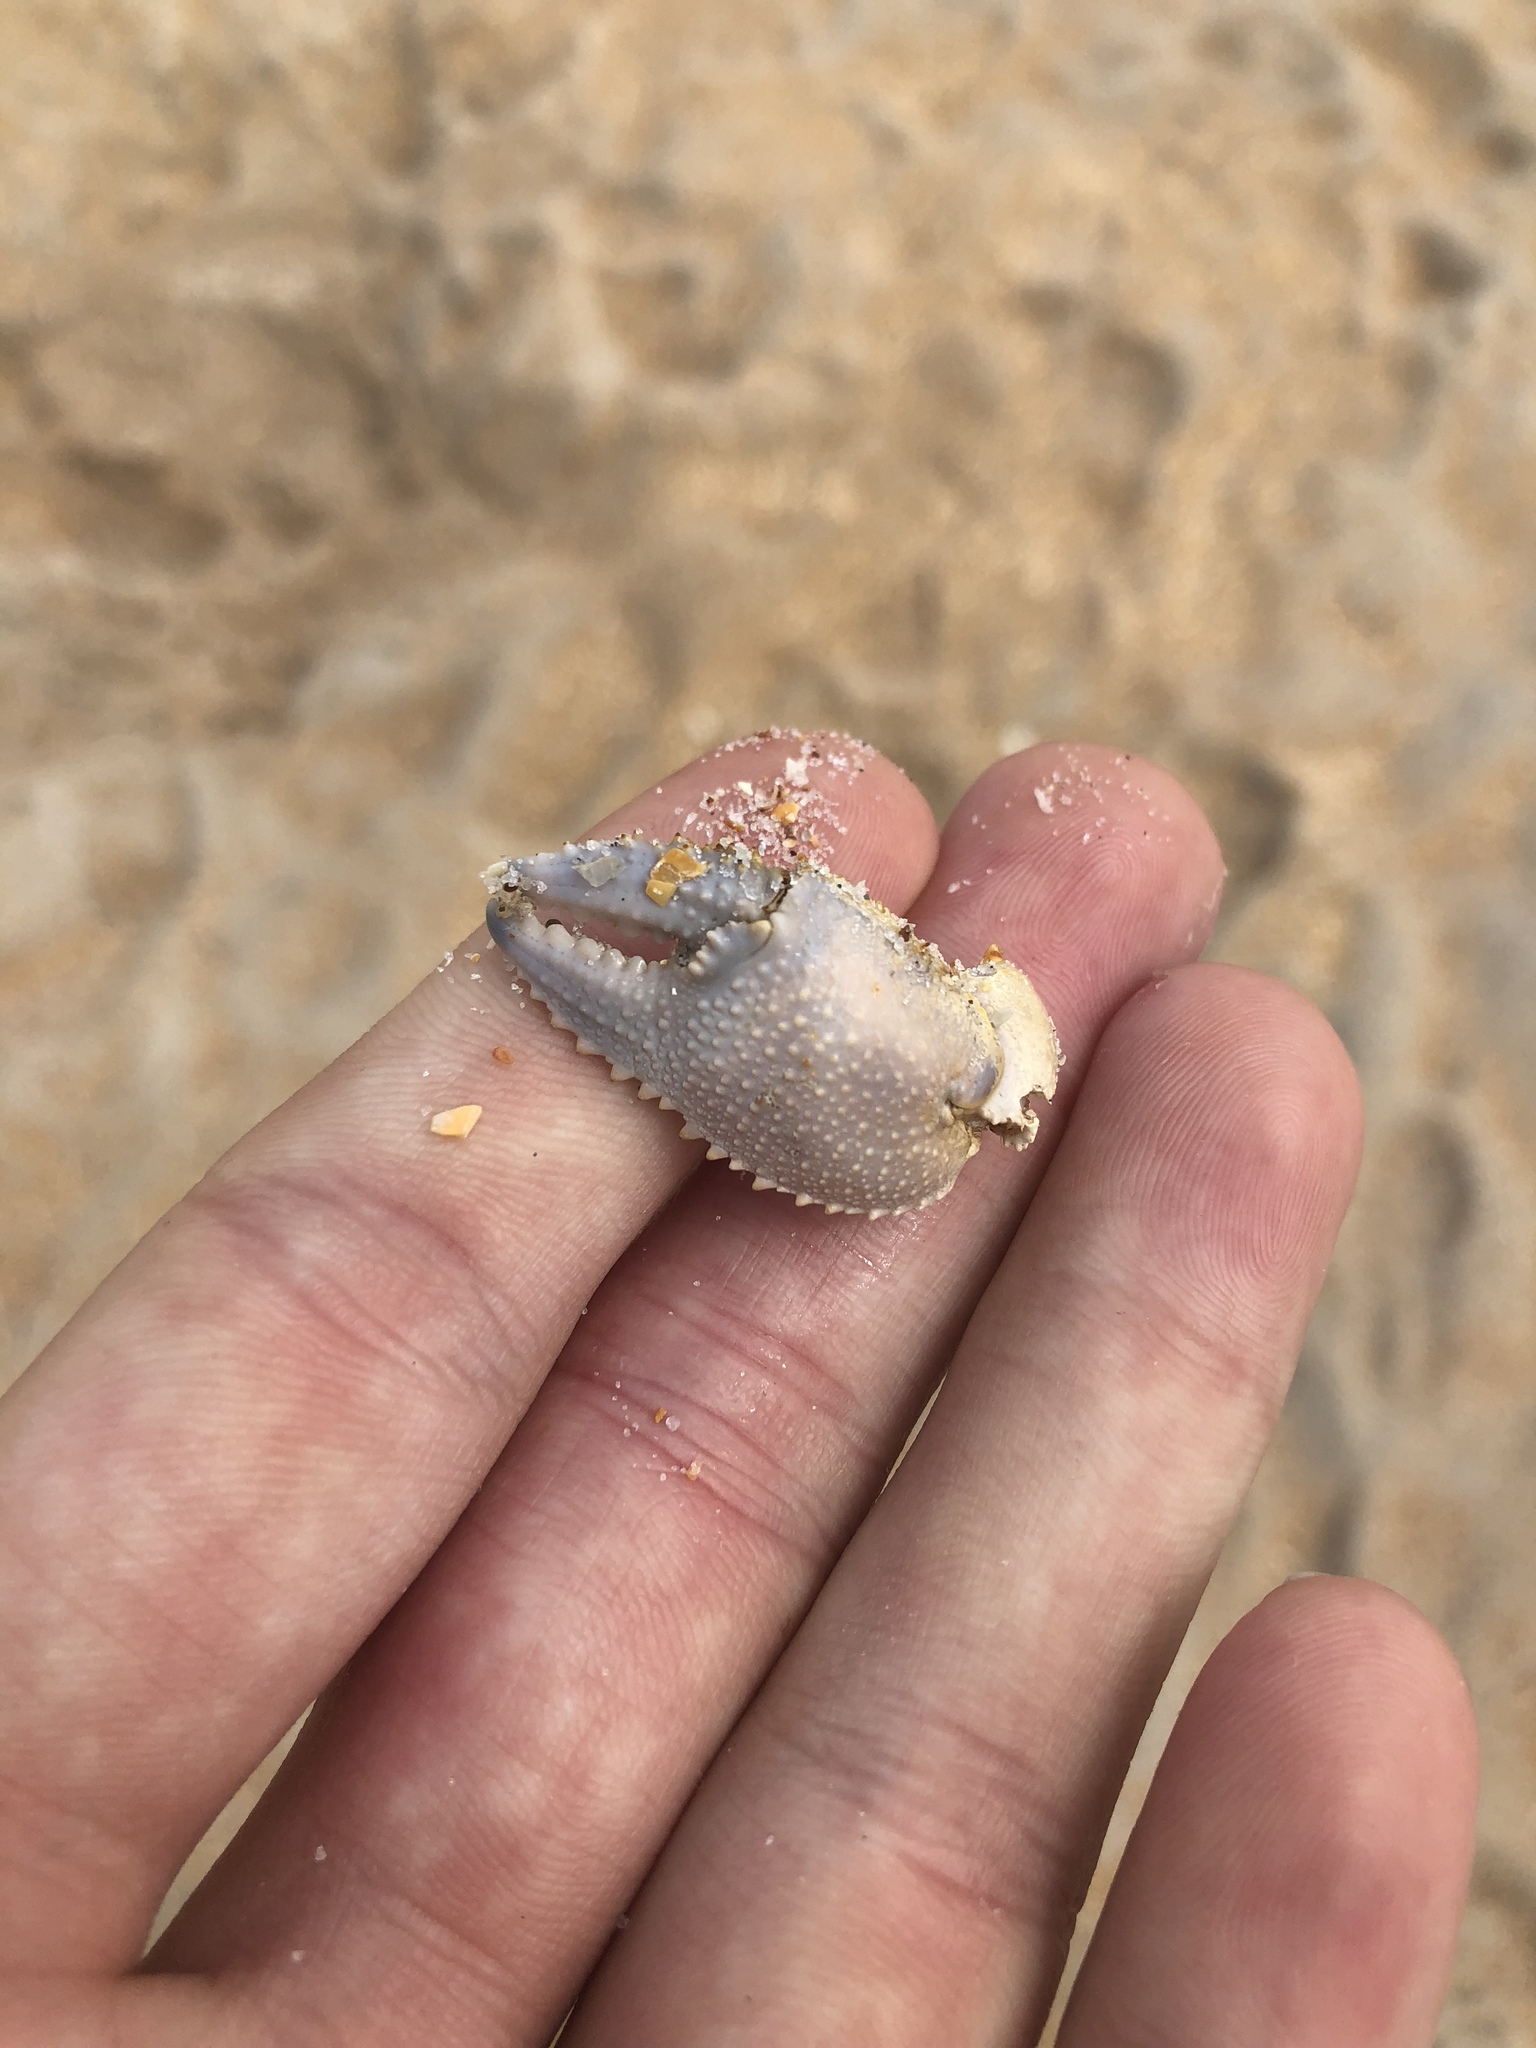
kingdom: Animalia
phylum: Arthropoda
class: Malacostraca
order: Decapoda
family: Ocypodidae
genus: Ocypode
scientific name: Ocypode quadrata
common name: Ghost crab
